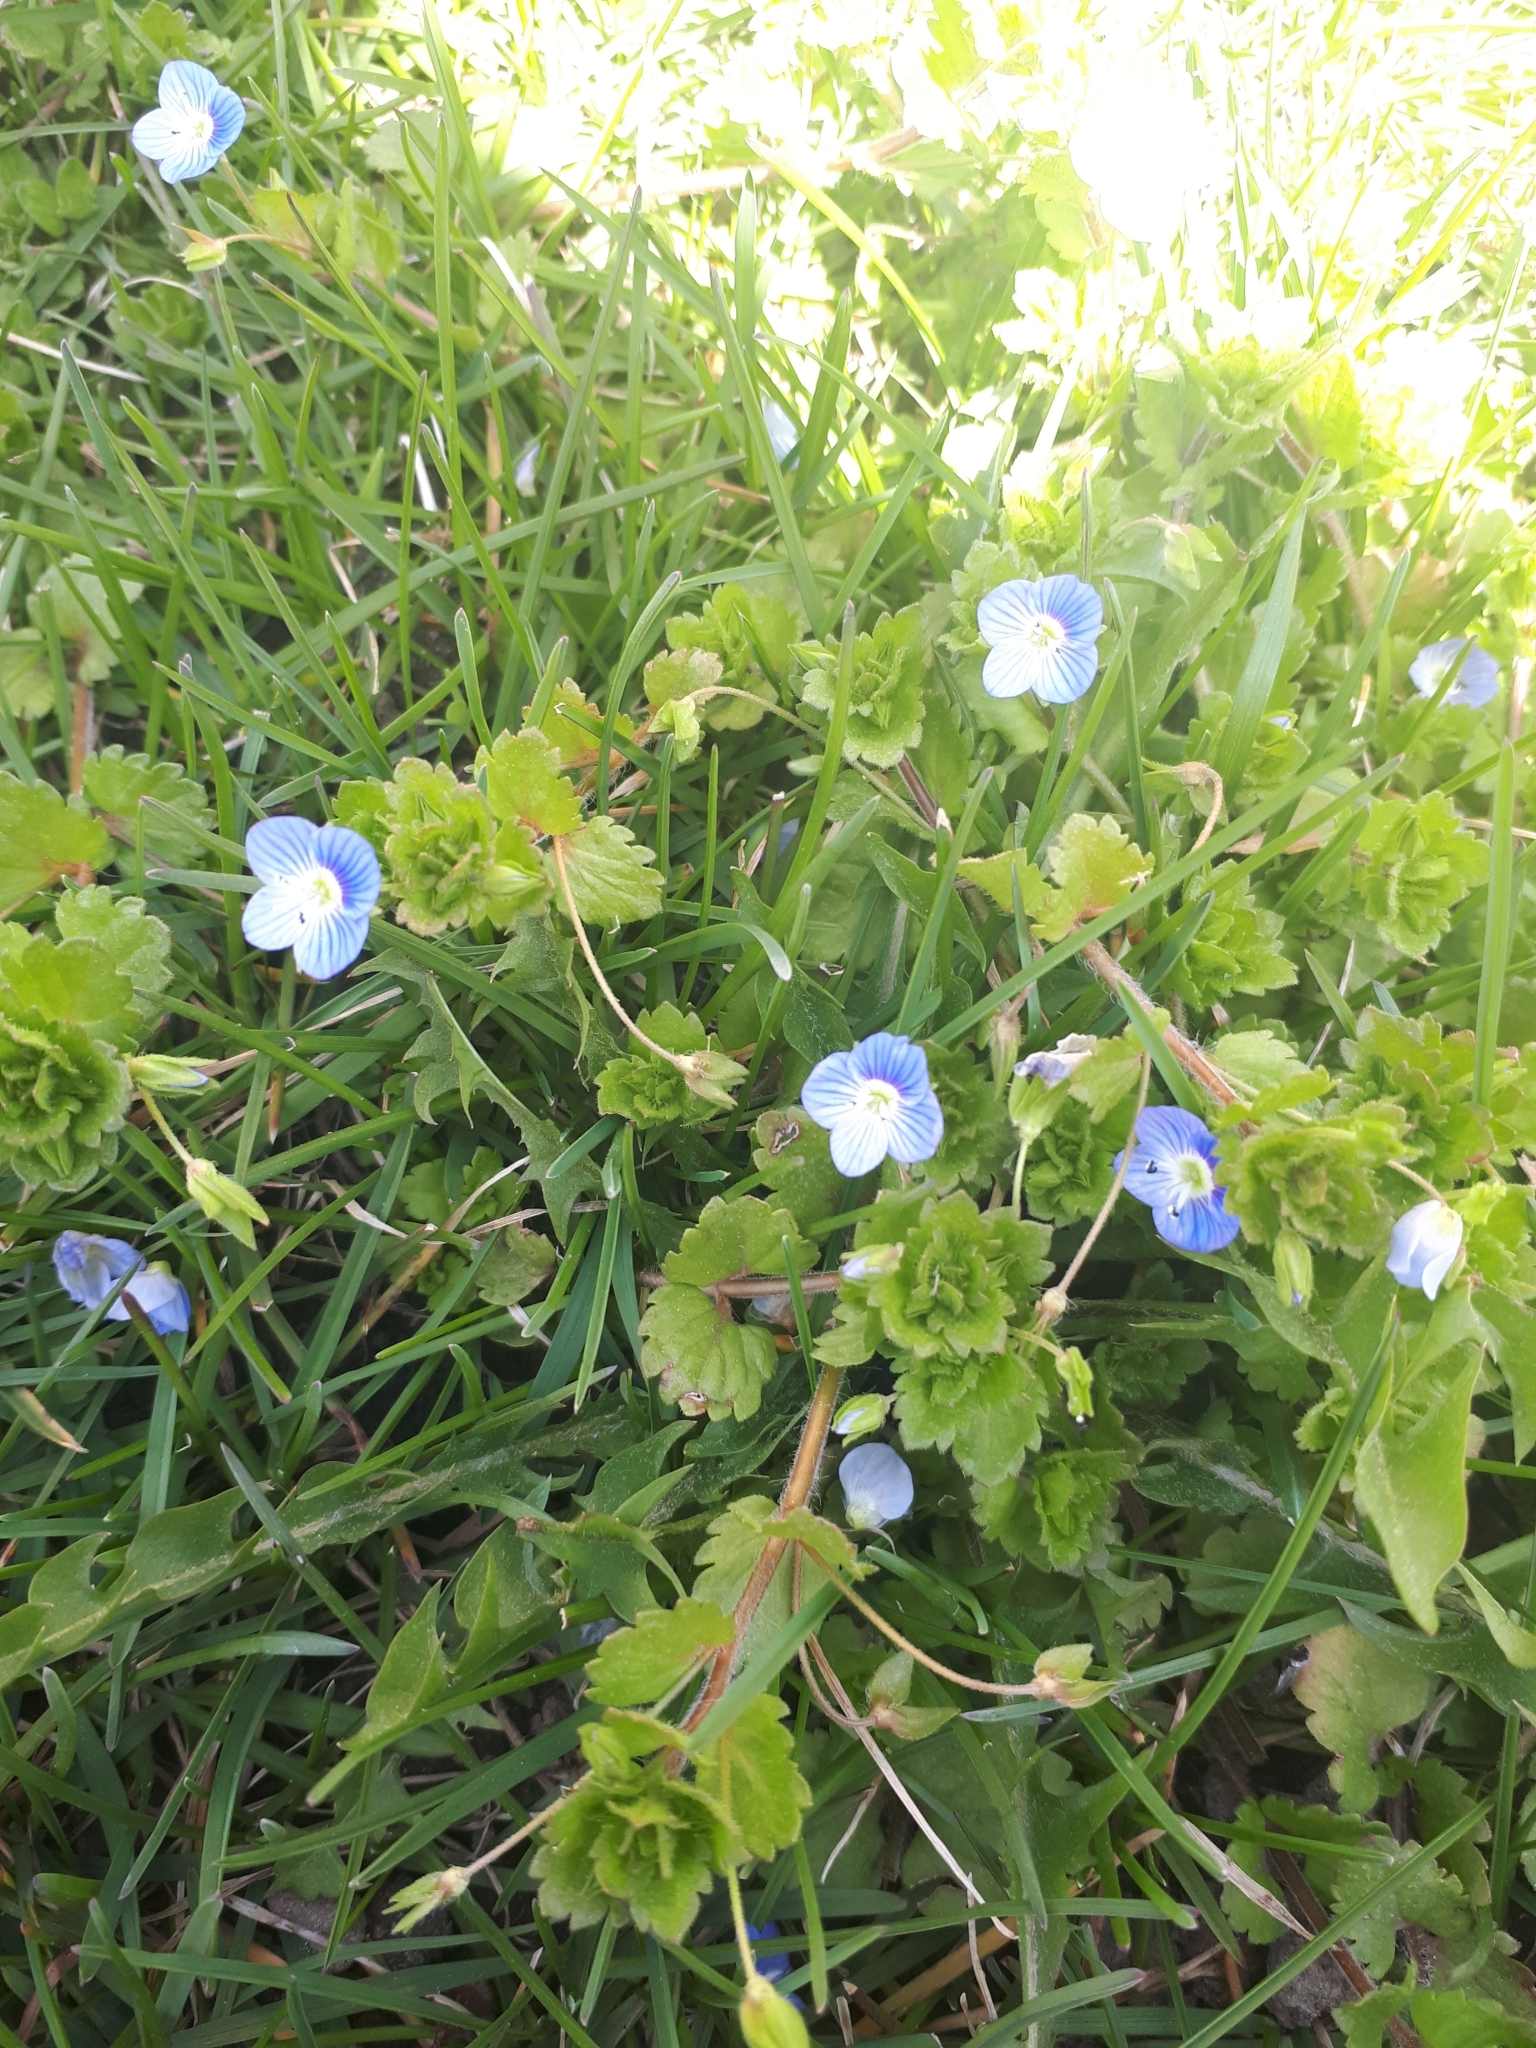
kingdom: Plantae
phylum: Tracheophyta
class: Magnoliopsida
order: Lamiales
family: Plantaginaceae
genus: Veronica
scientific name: Veronica persica
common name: Common field-speedwell
